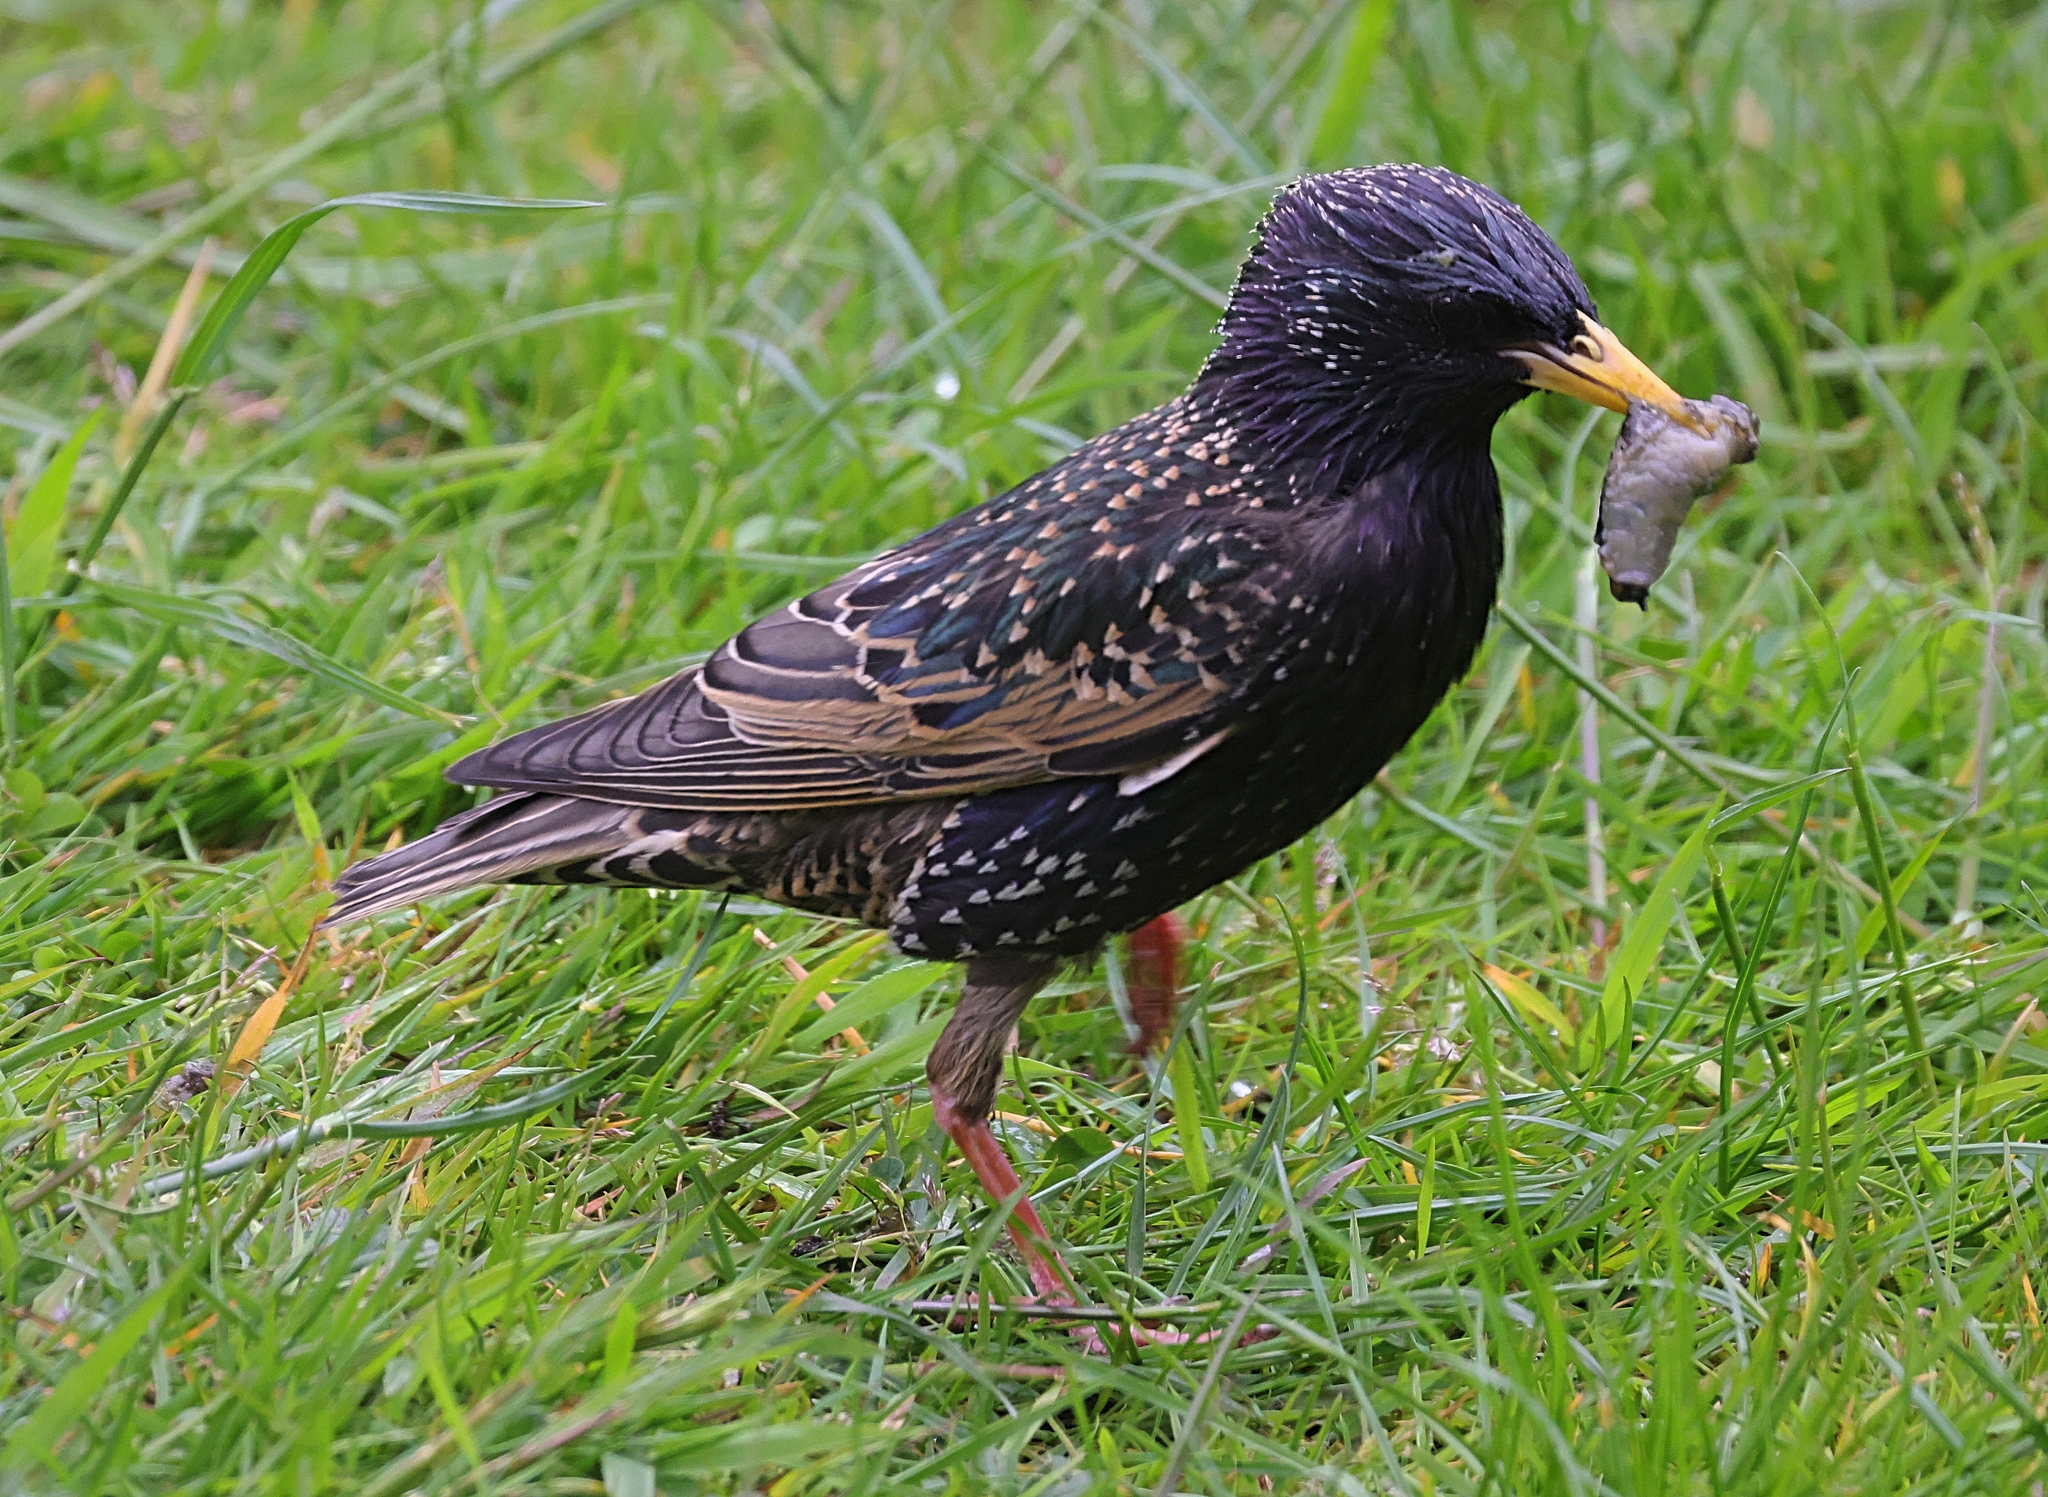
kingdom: Animalia
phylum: Chordata
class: Aves
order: Passeriformes
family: Sturnidae
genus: Sturnus
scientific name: Sturnus vulgaris
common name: Common starling
